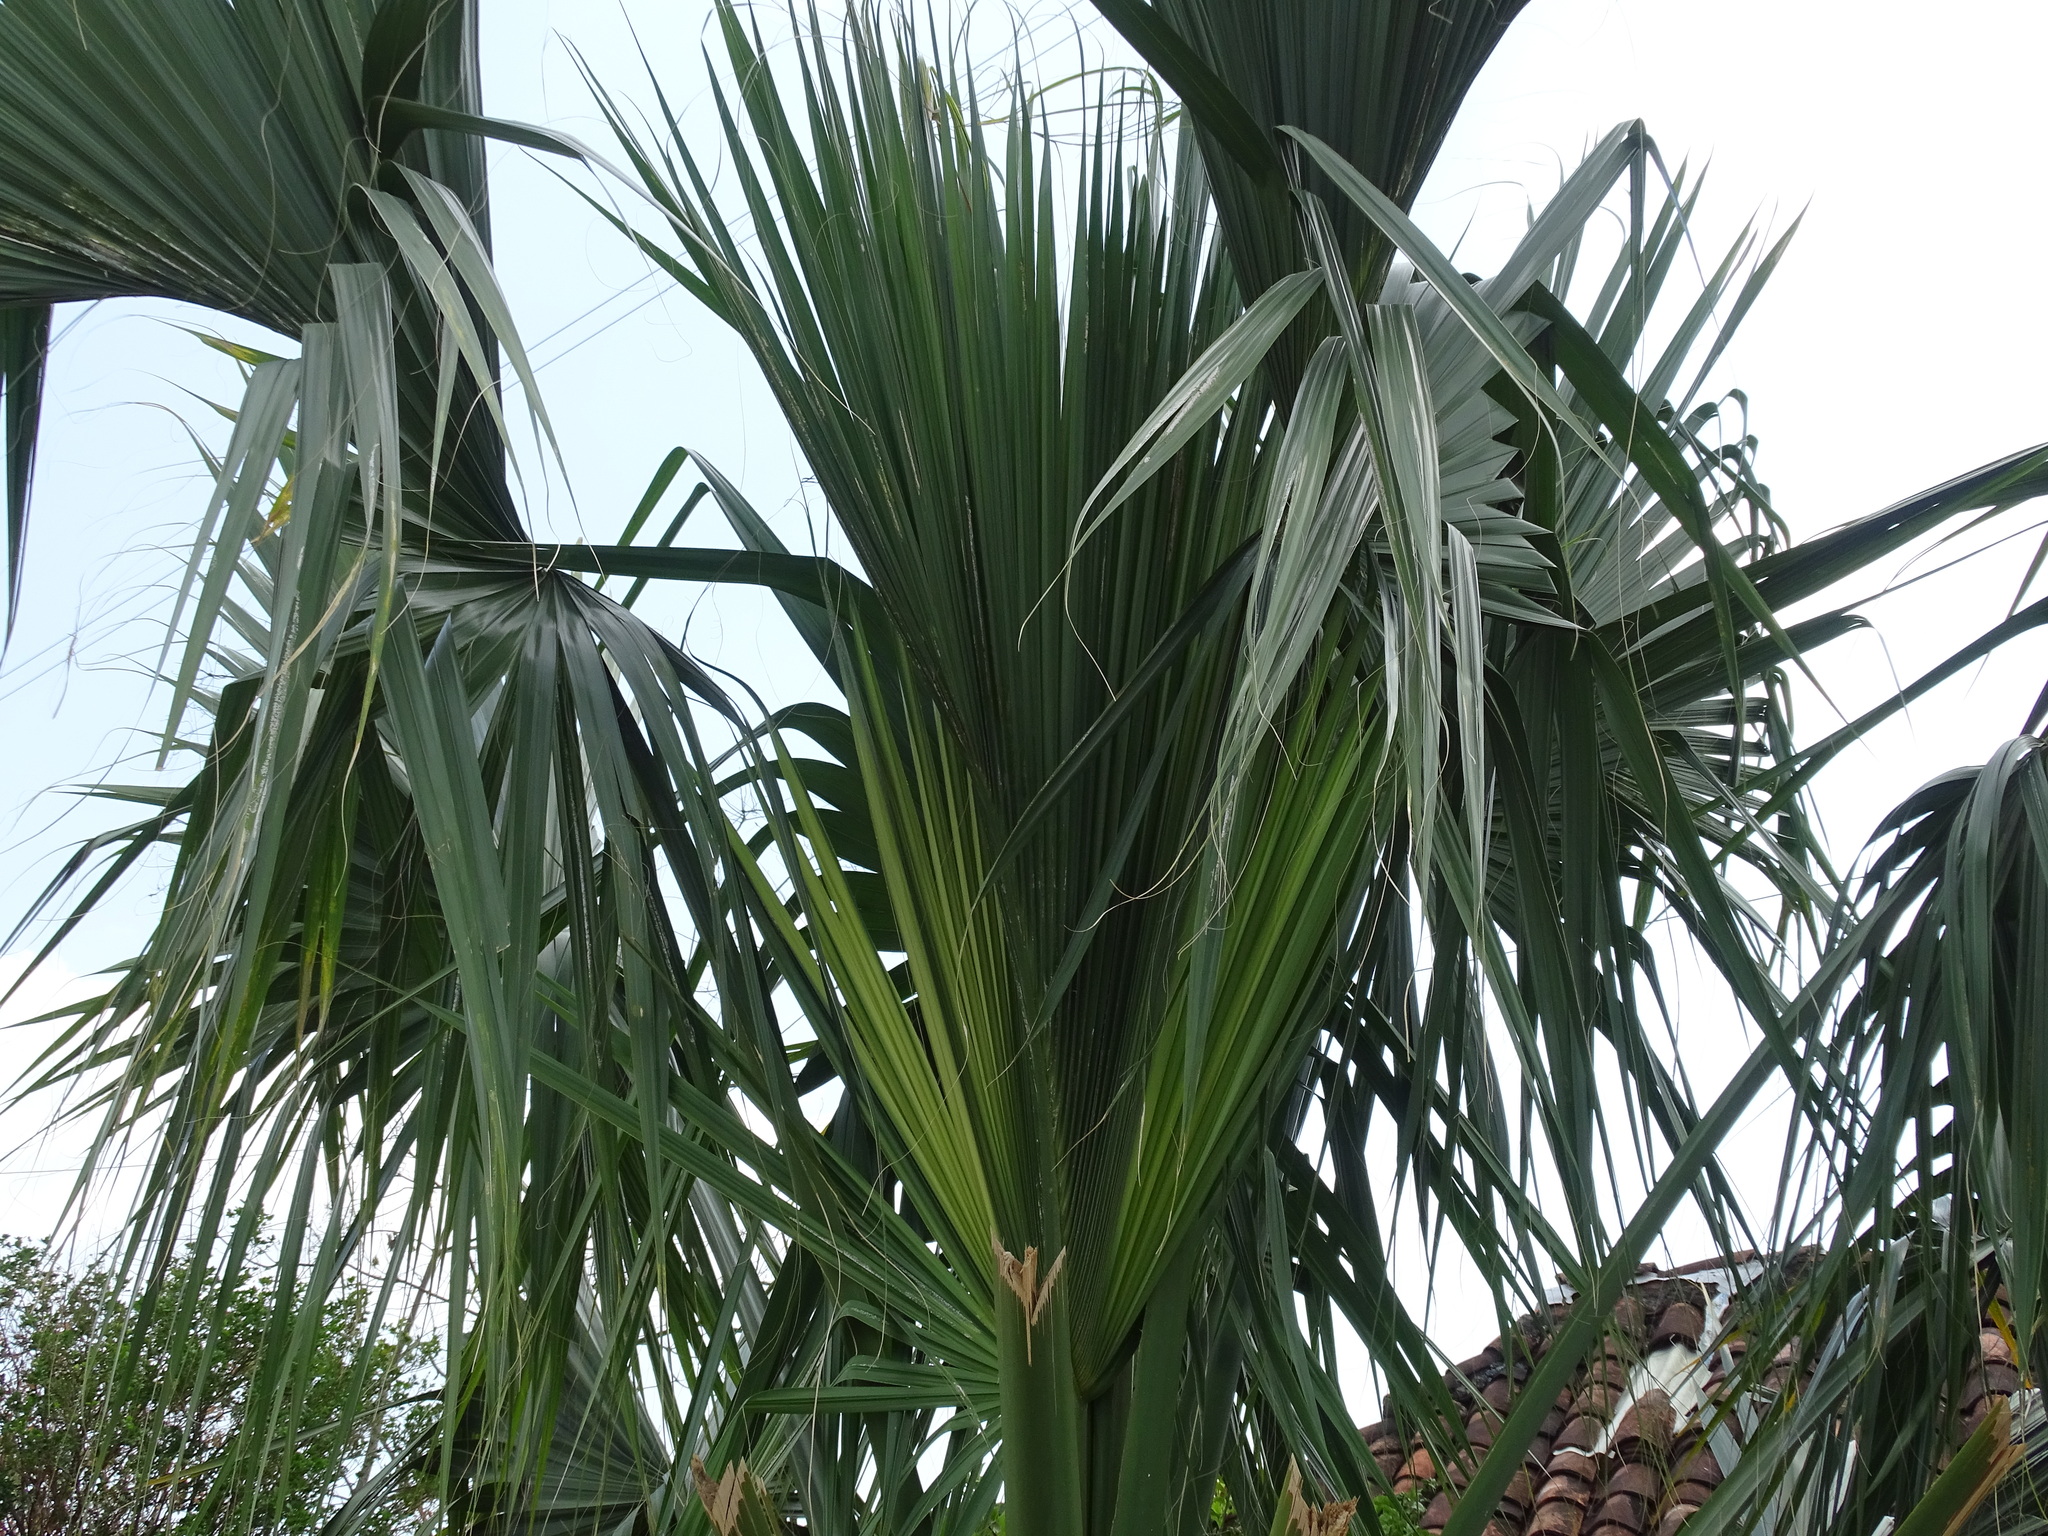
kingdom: Plantae
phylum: Tracheophyta
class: Liliopsida
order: Arecales
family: Arecaceae
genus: Sabal
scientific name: Sabal mexicana
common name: Texas palmetto
